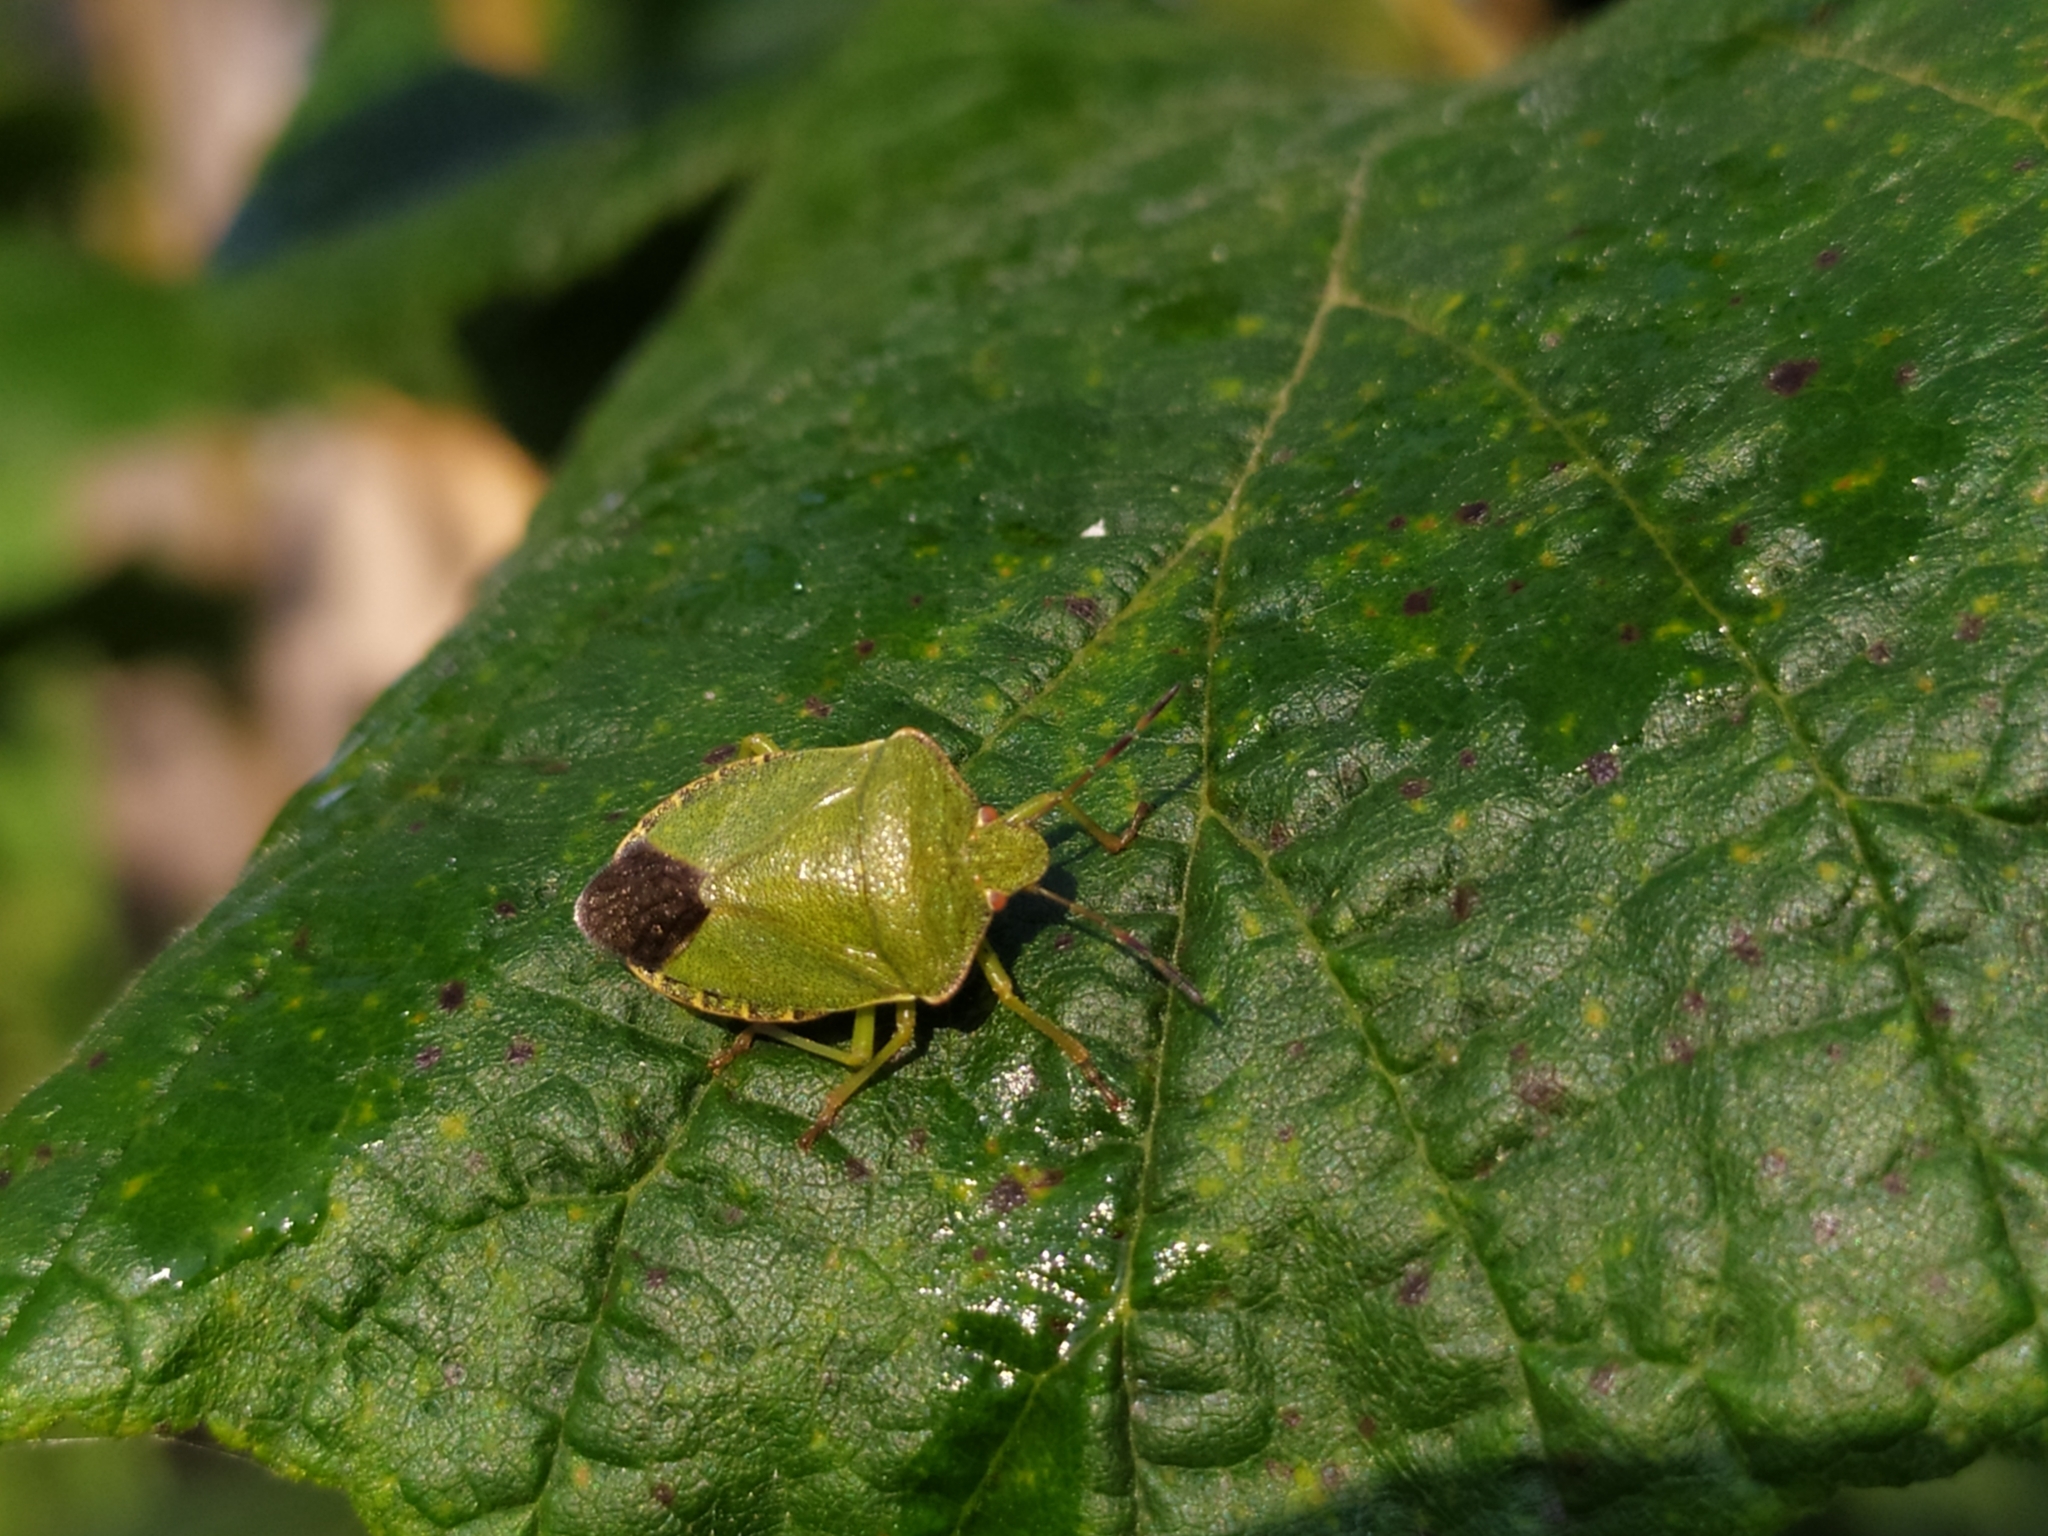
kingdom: Animalia
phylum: Arthropoda
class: Insecta
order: Hemiptera
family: Pentatomidae
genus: Palomena
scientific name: Palomena prasina
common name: Green shieldbug
